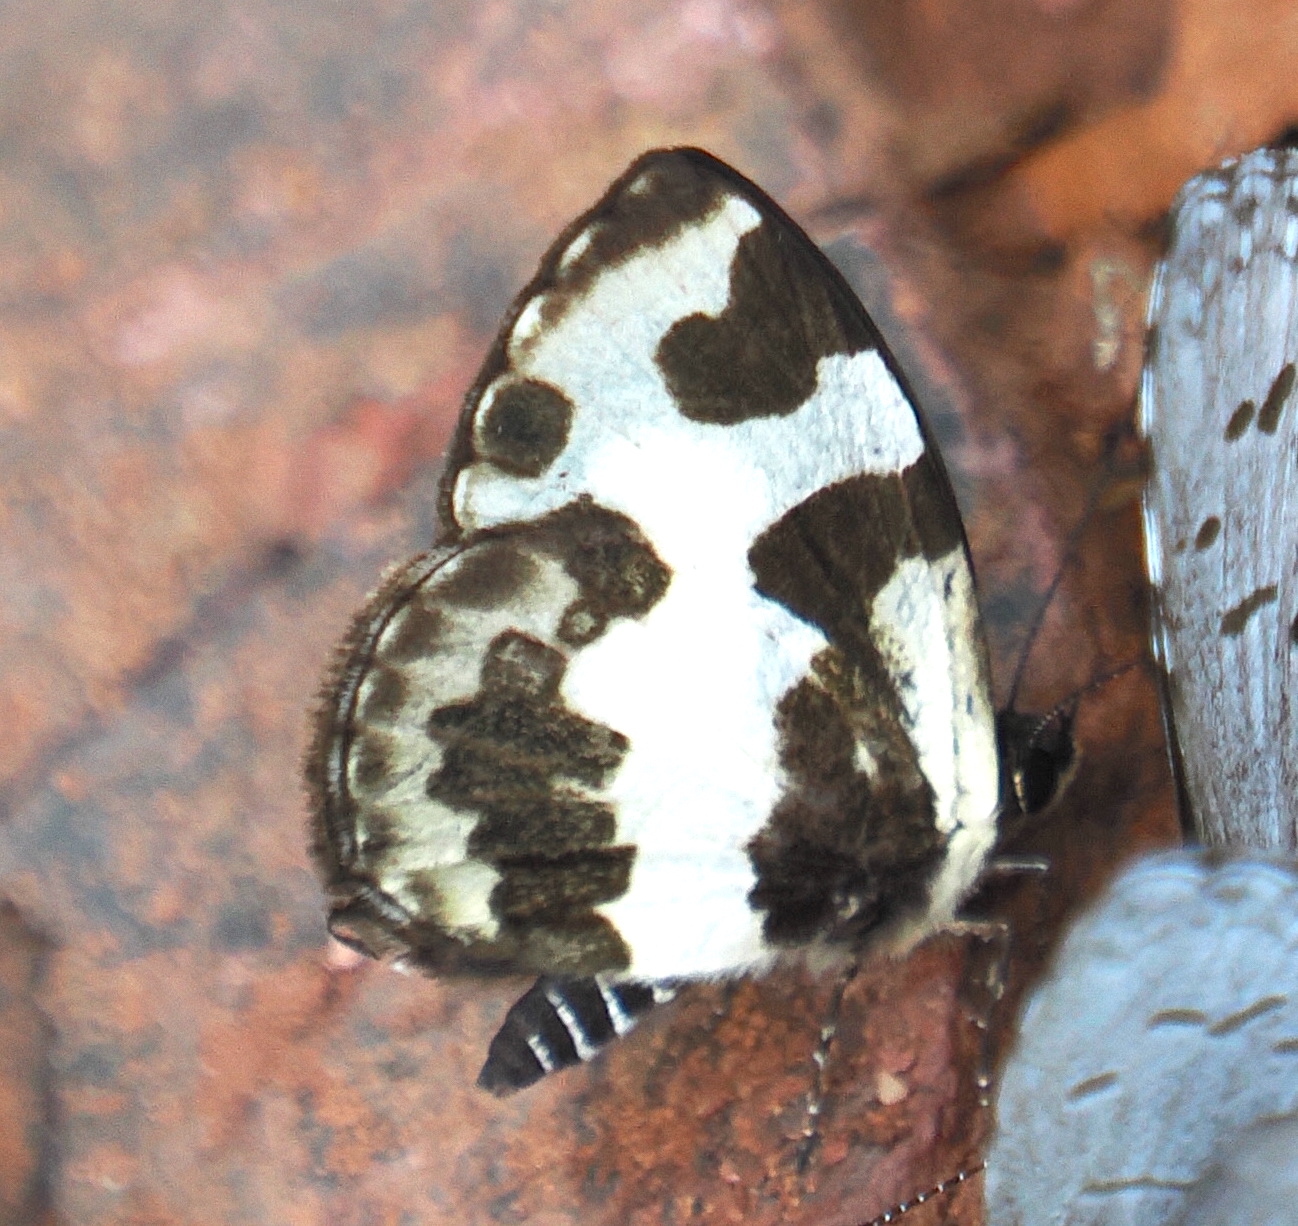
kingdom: Animalia
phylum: Arthropoda
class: Insecta
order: Lepidoptera
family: Lycaenidae
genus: Caleta
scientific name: Caleta elna
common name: Elbowed pierrot
